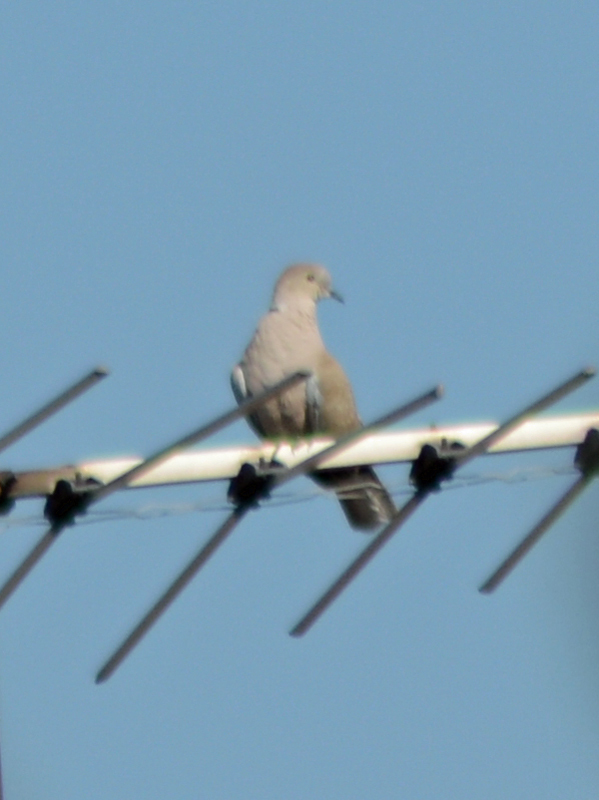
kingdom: Animalia
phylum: Chordata
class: Aves
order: Columbiformes
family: Columbidae
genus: Streptopelia
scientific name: Streptopelia decaocto
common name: Eurasian collared dove
